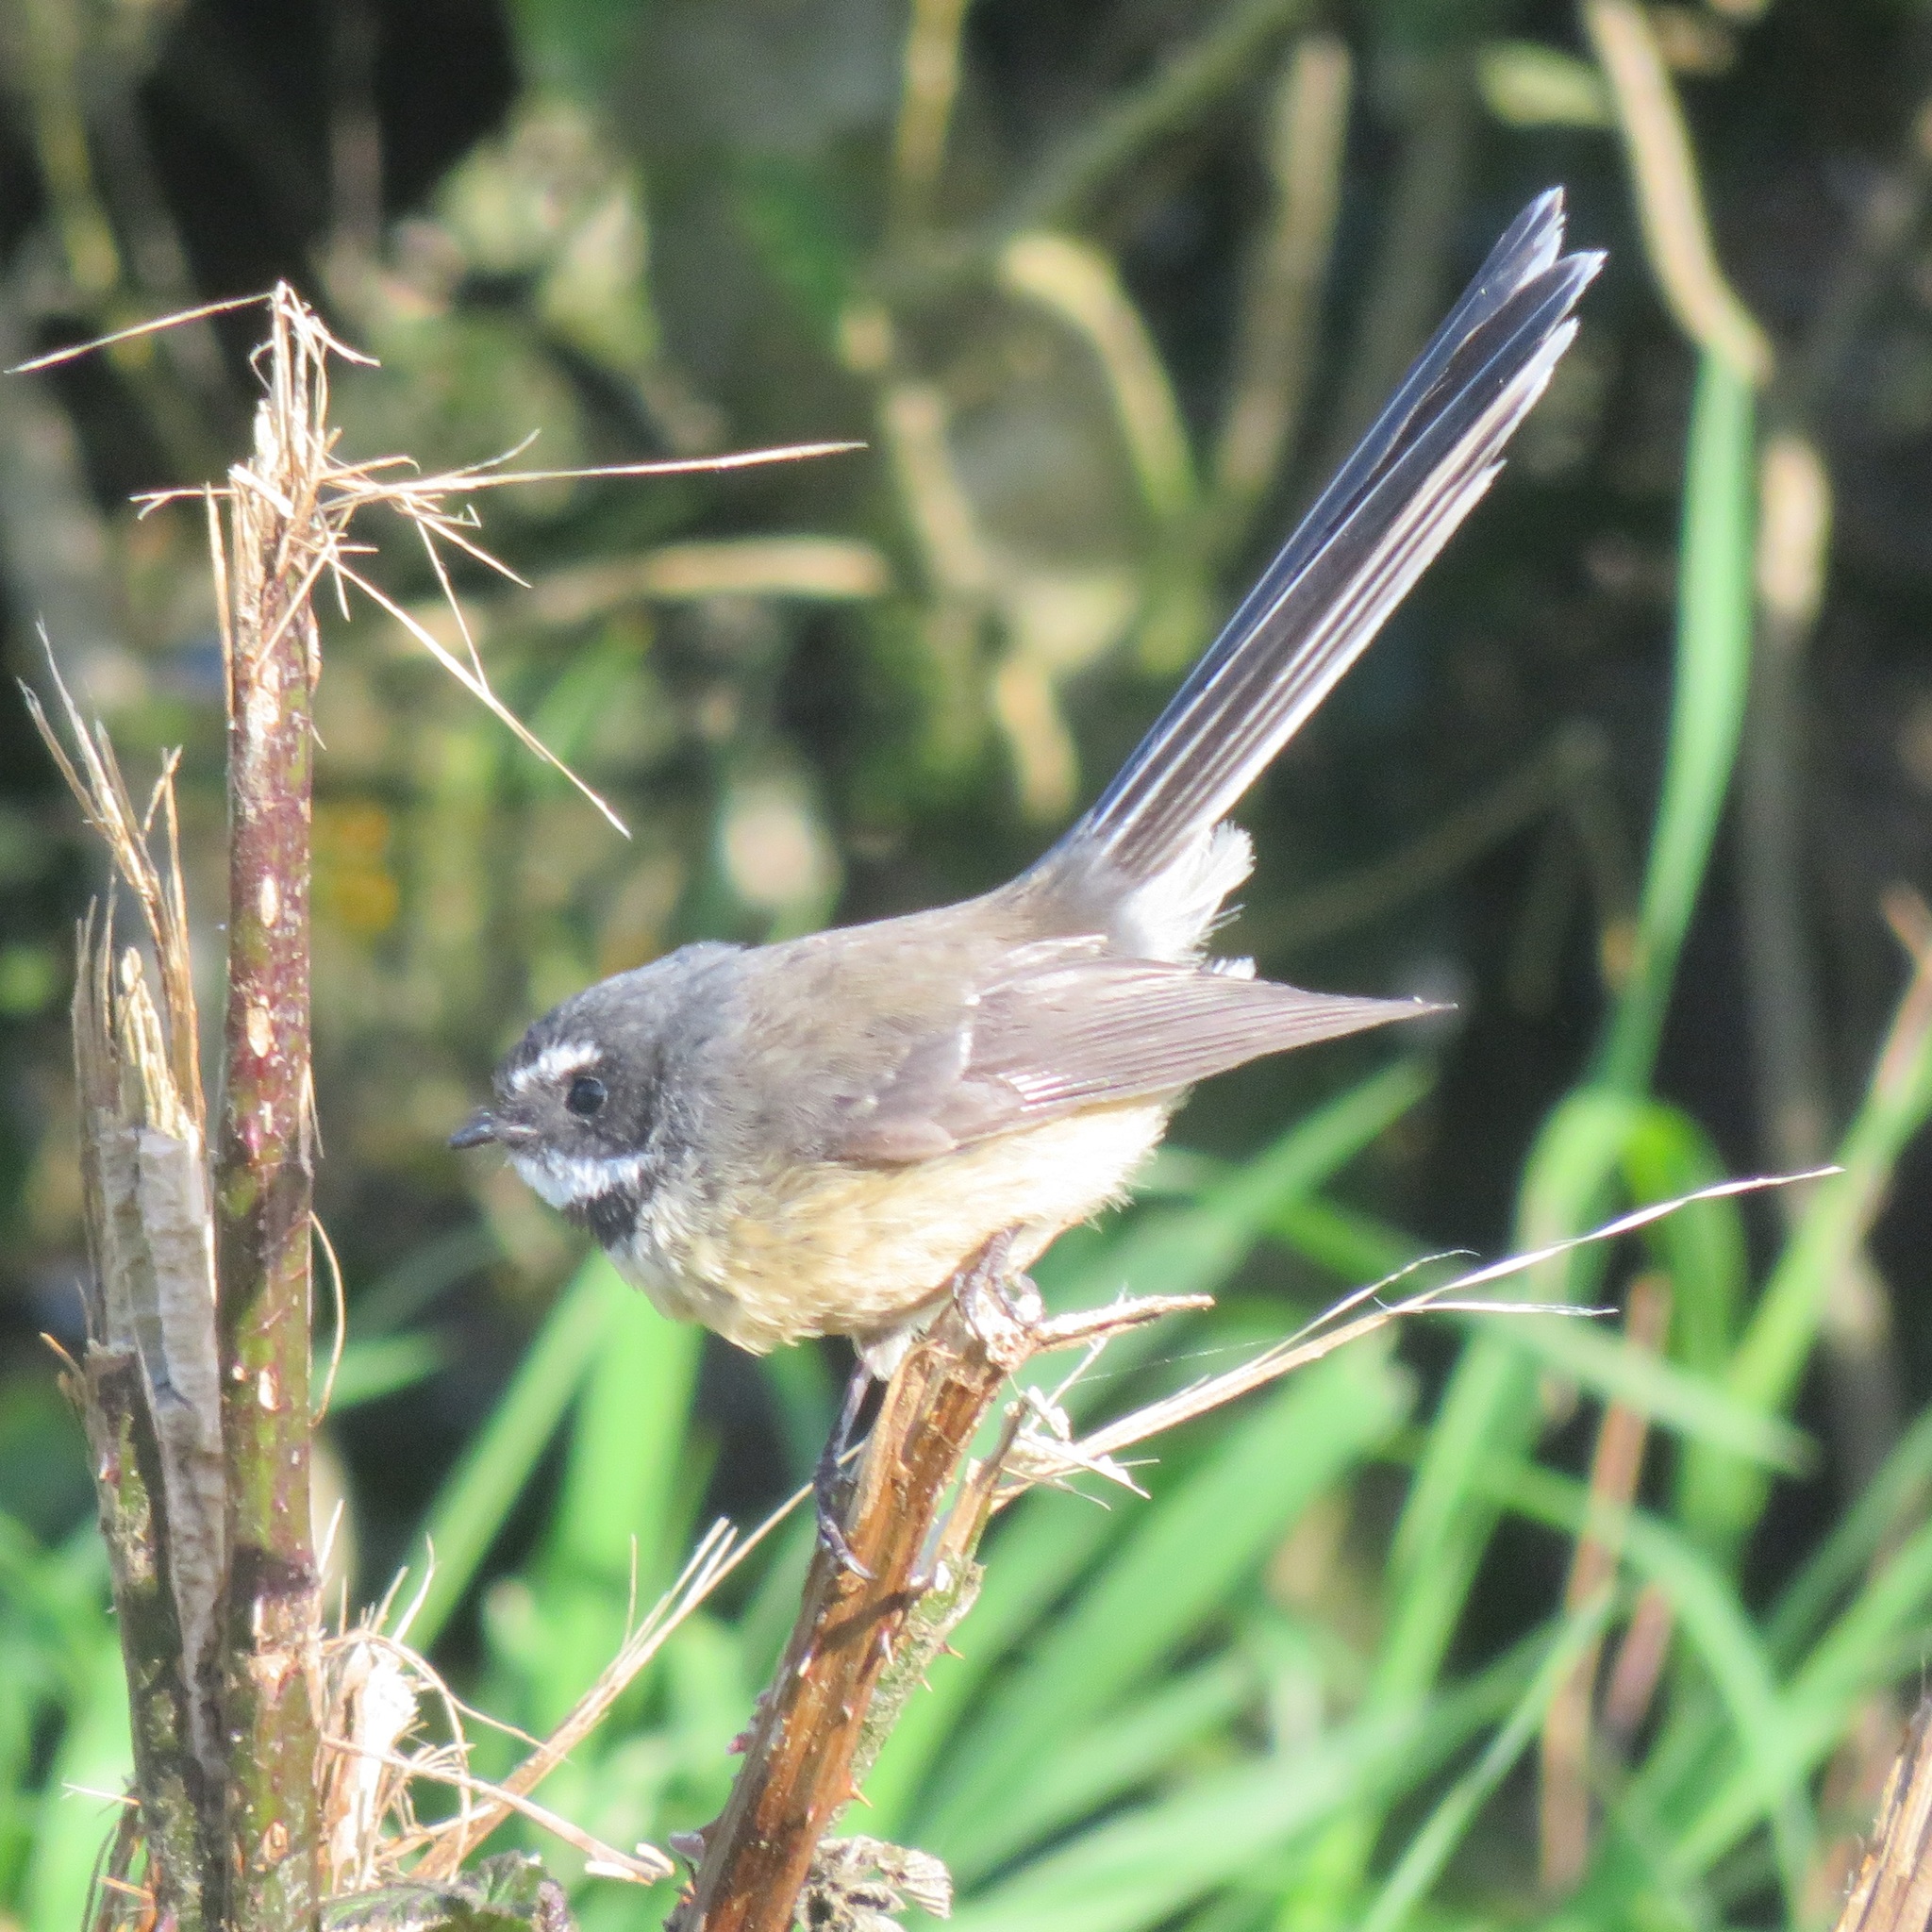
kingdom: Animalia
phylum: Chordata
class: Aves
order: Passeriformes
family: Rhipiduridae
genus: Rhipidura
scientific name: Rhipidura fuliginosa
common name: New zealand fantail
